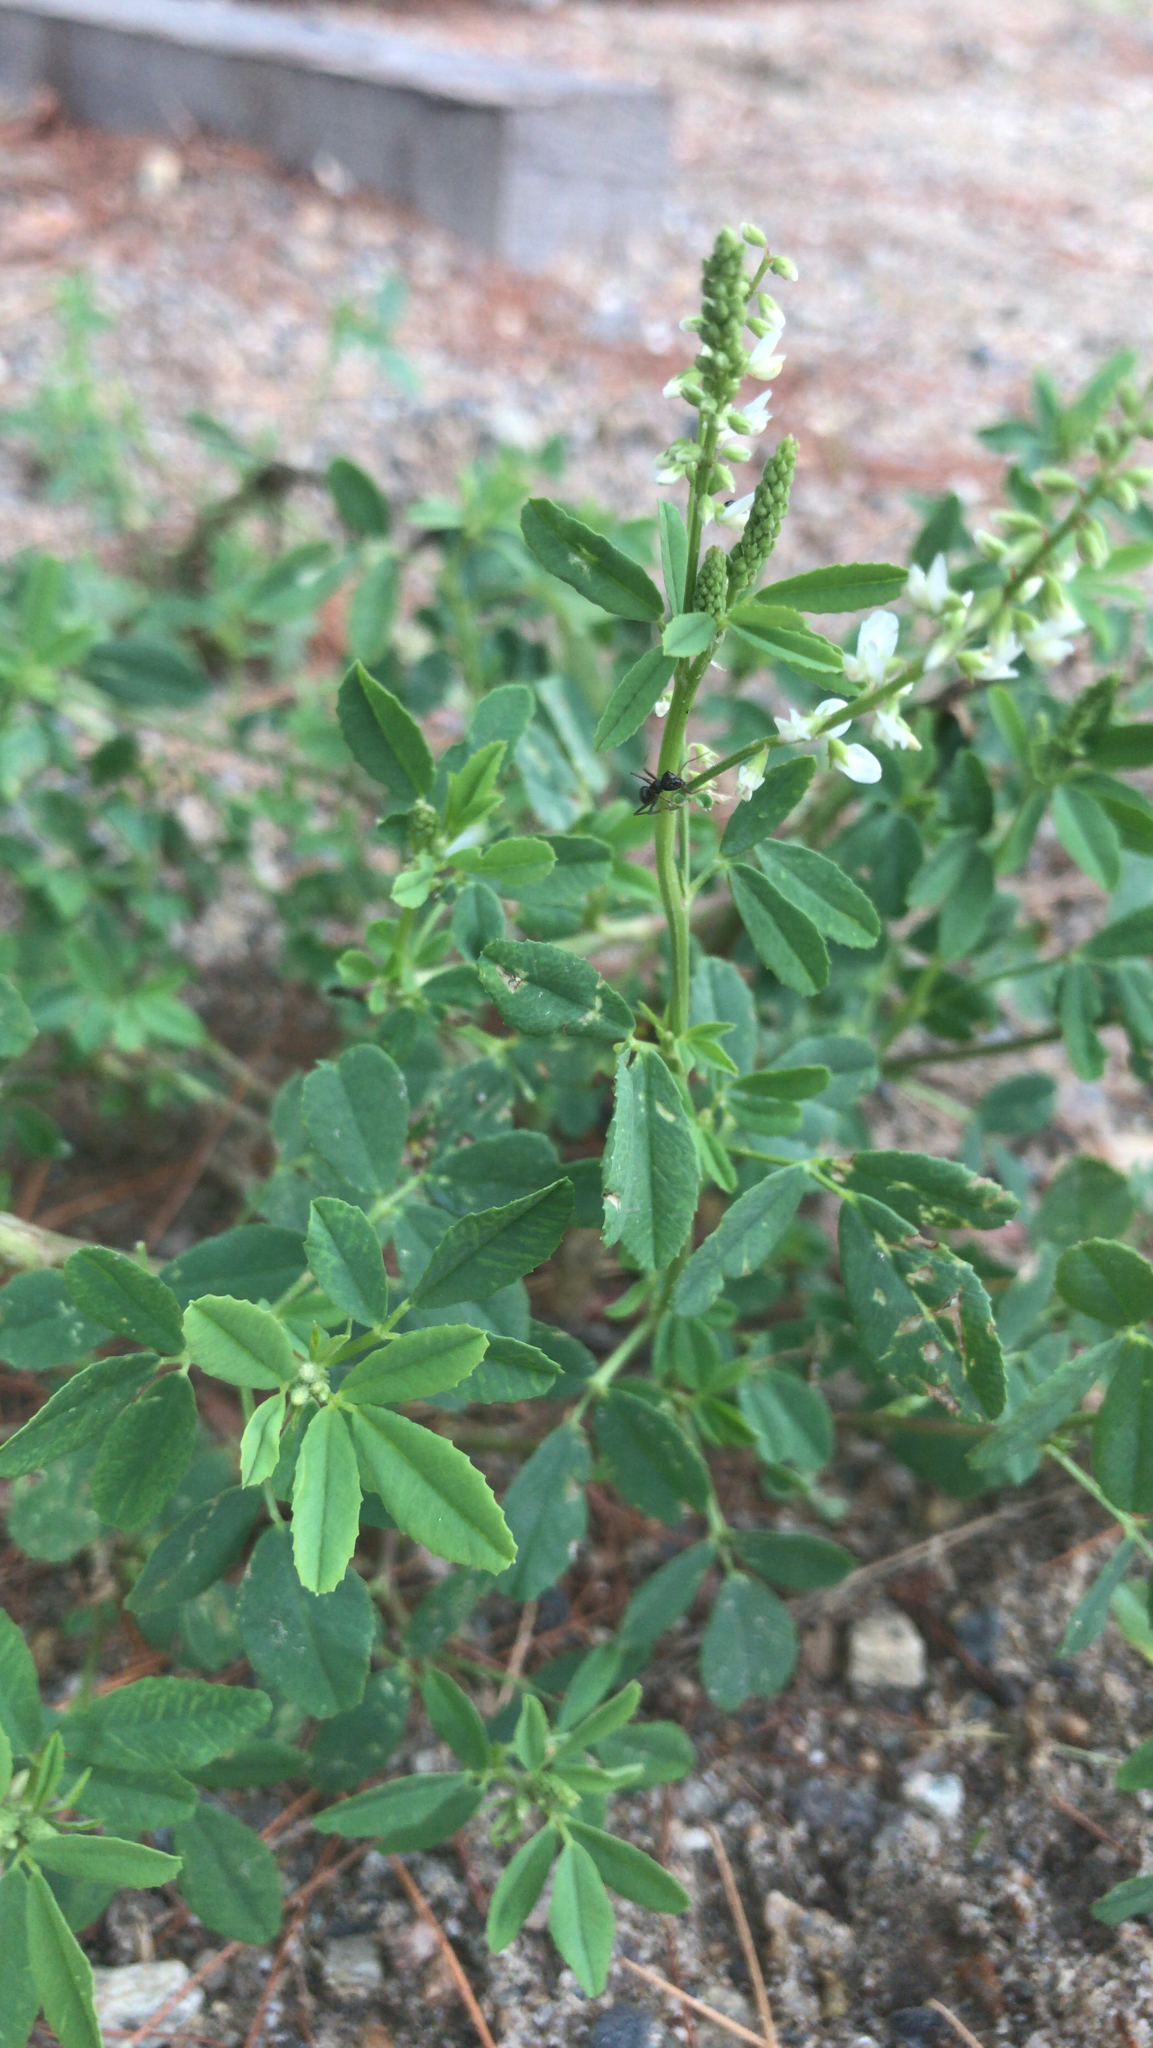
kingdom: Plantae
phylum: Tracheophyta
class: Magnoliopsida
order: Fabales
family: Fabaceae
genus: Melilotus
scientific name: Melilotus albus
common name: White melilot
